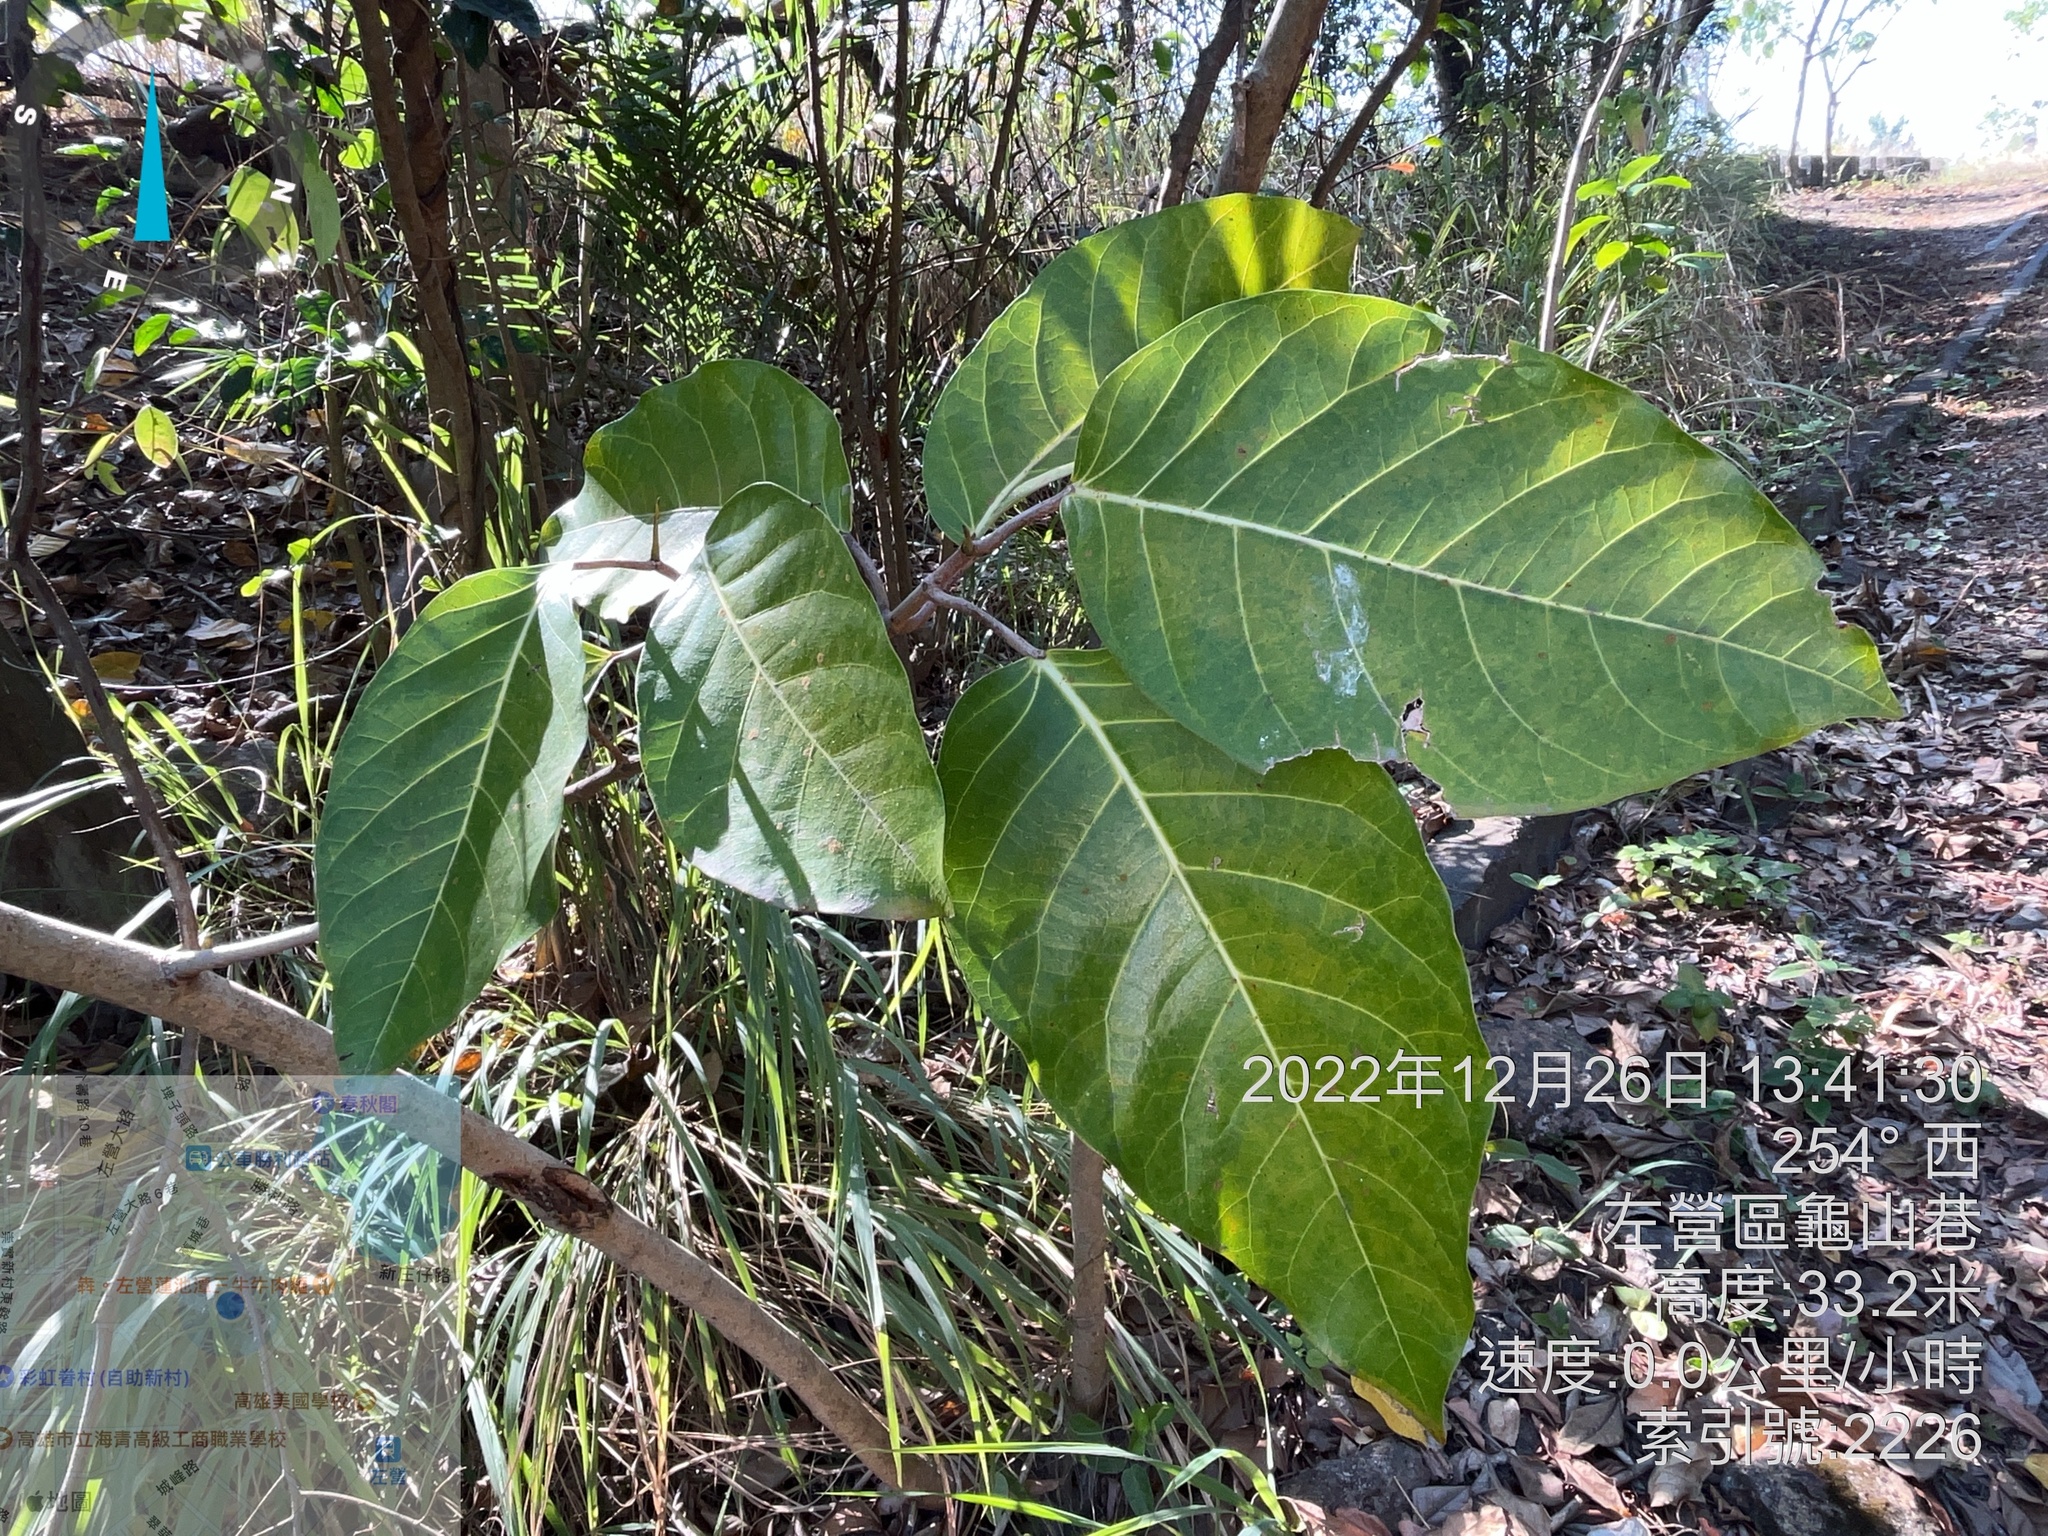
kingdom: Plantae
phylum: Tracheophyta
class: Magnoliopsida
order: Rosales
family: Moraceae
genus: Ficus
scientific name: Ficus septica
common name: Septic fig
